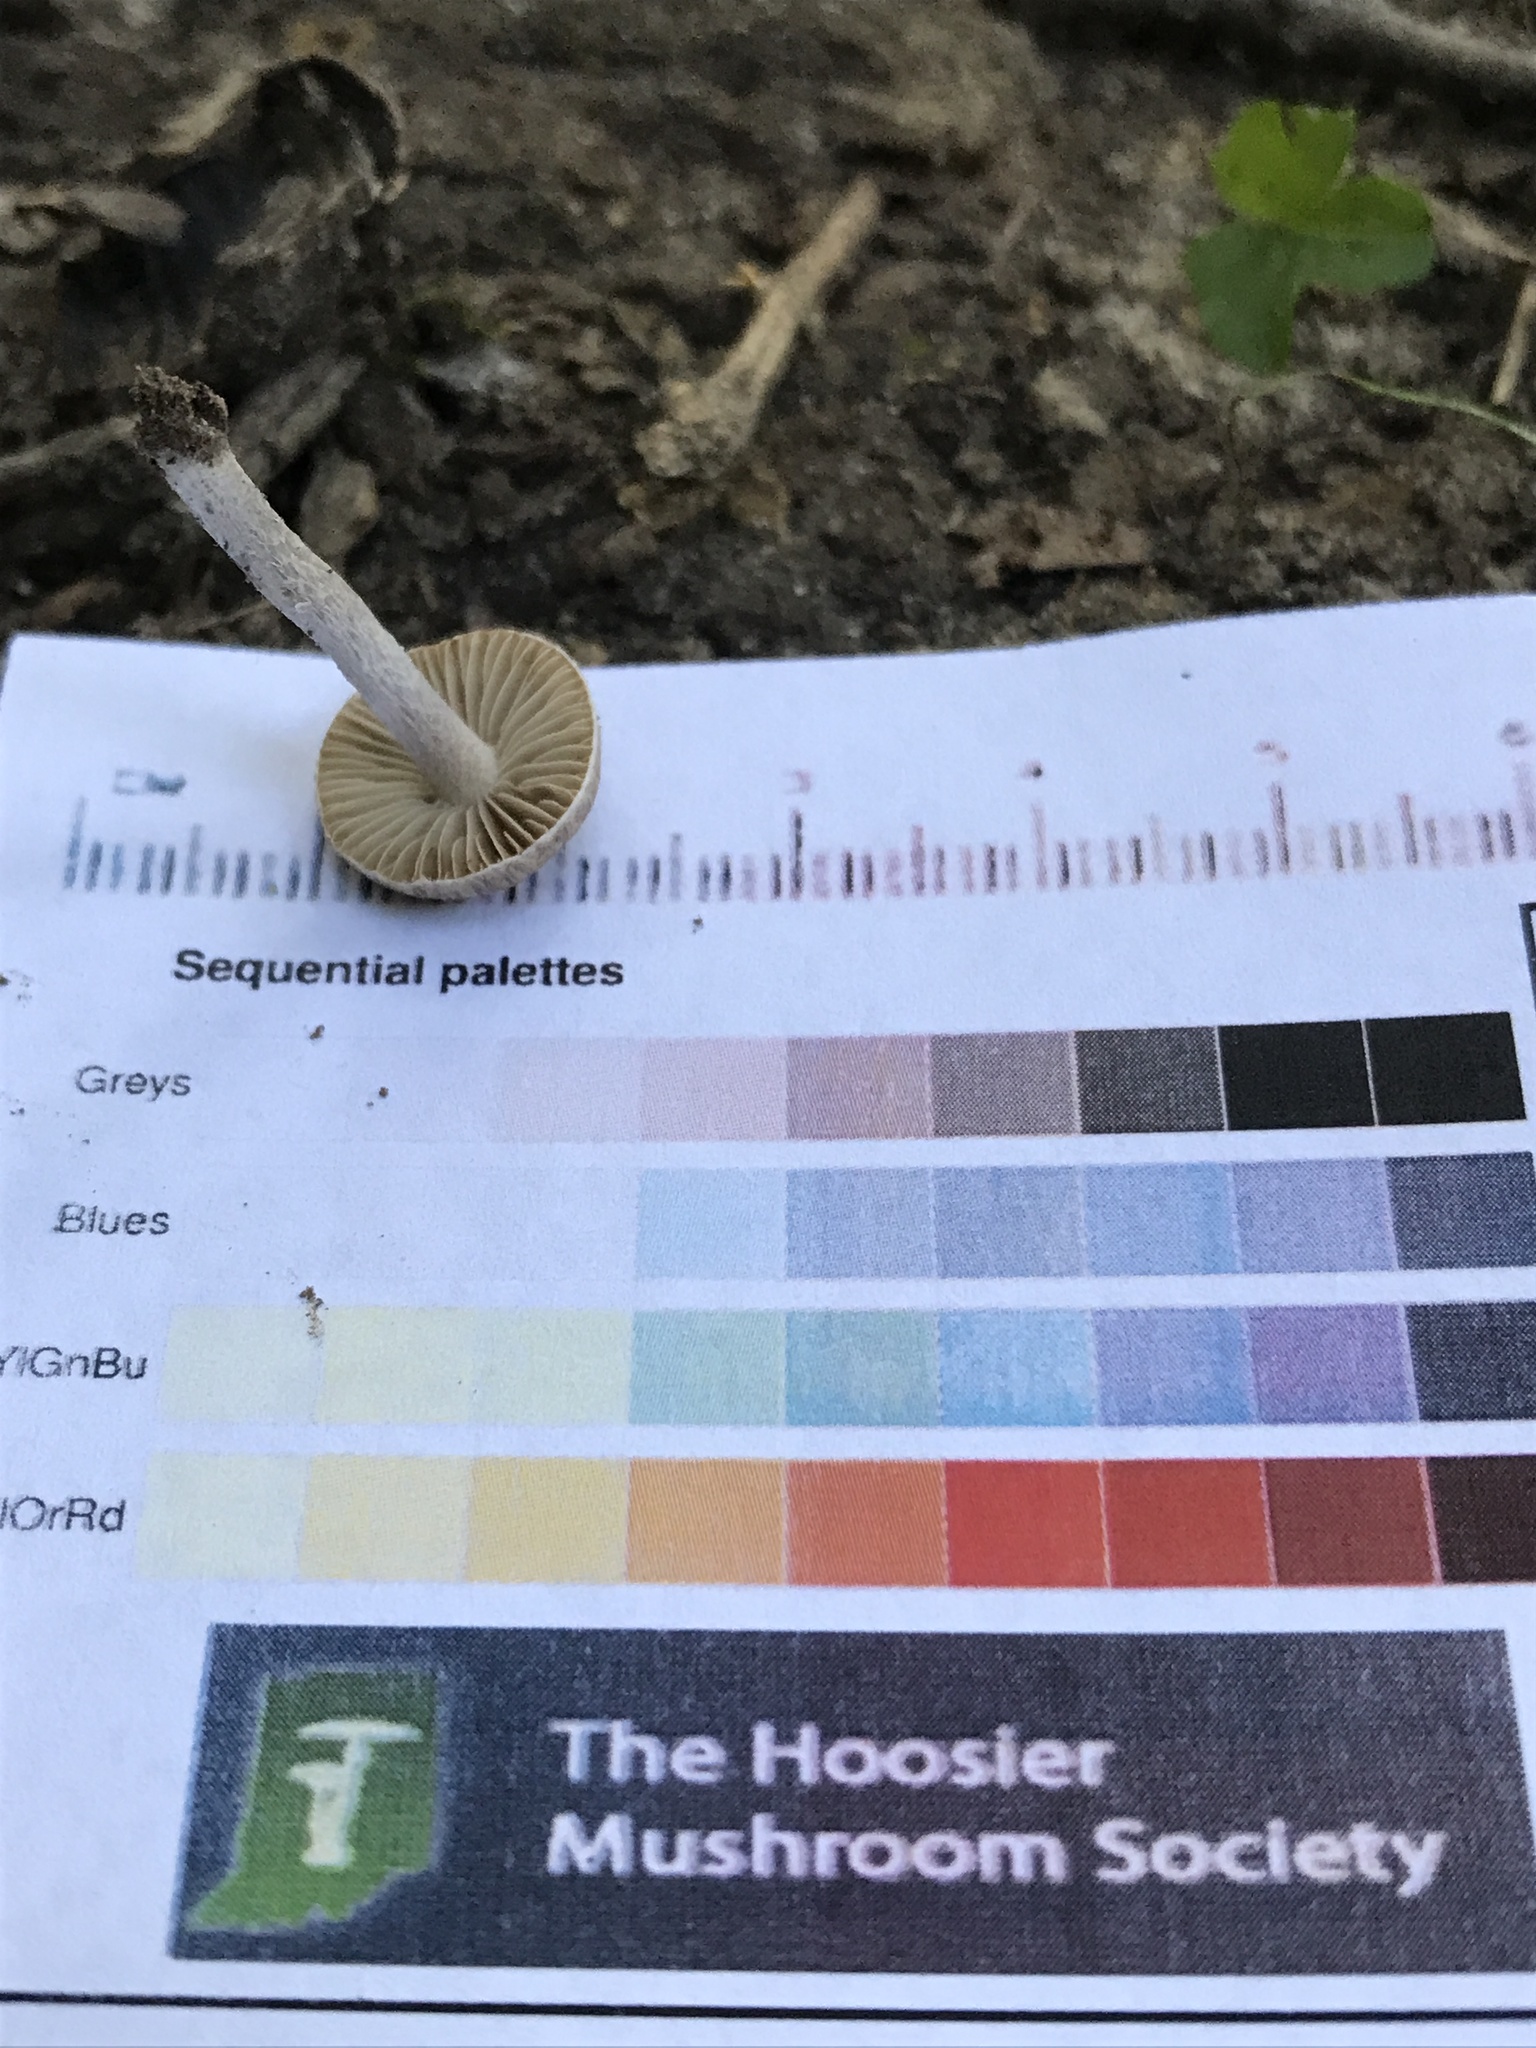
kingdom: Fungi
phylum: Basidiomycota
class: Agaricomycetes
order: Agaricales
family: Inocybaceae
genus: Inocybe
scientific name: Inocybe putilla
